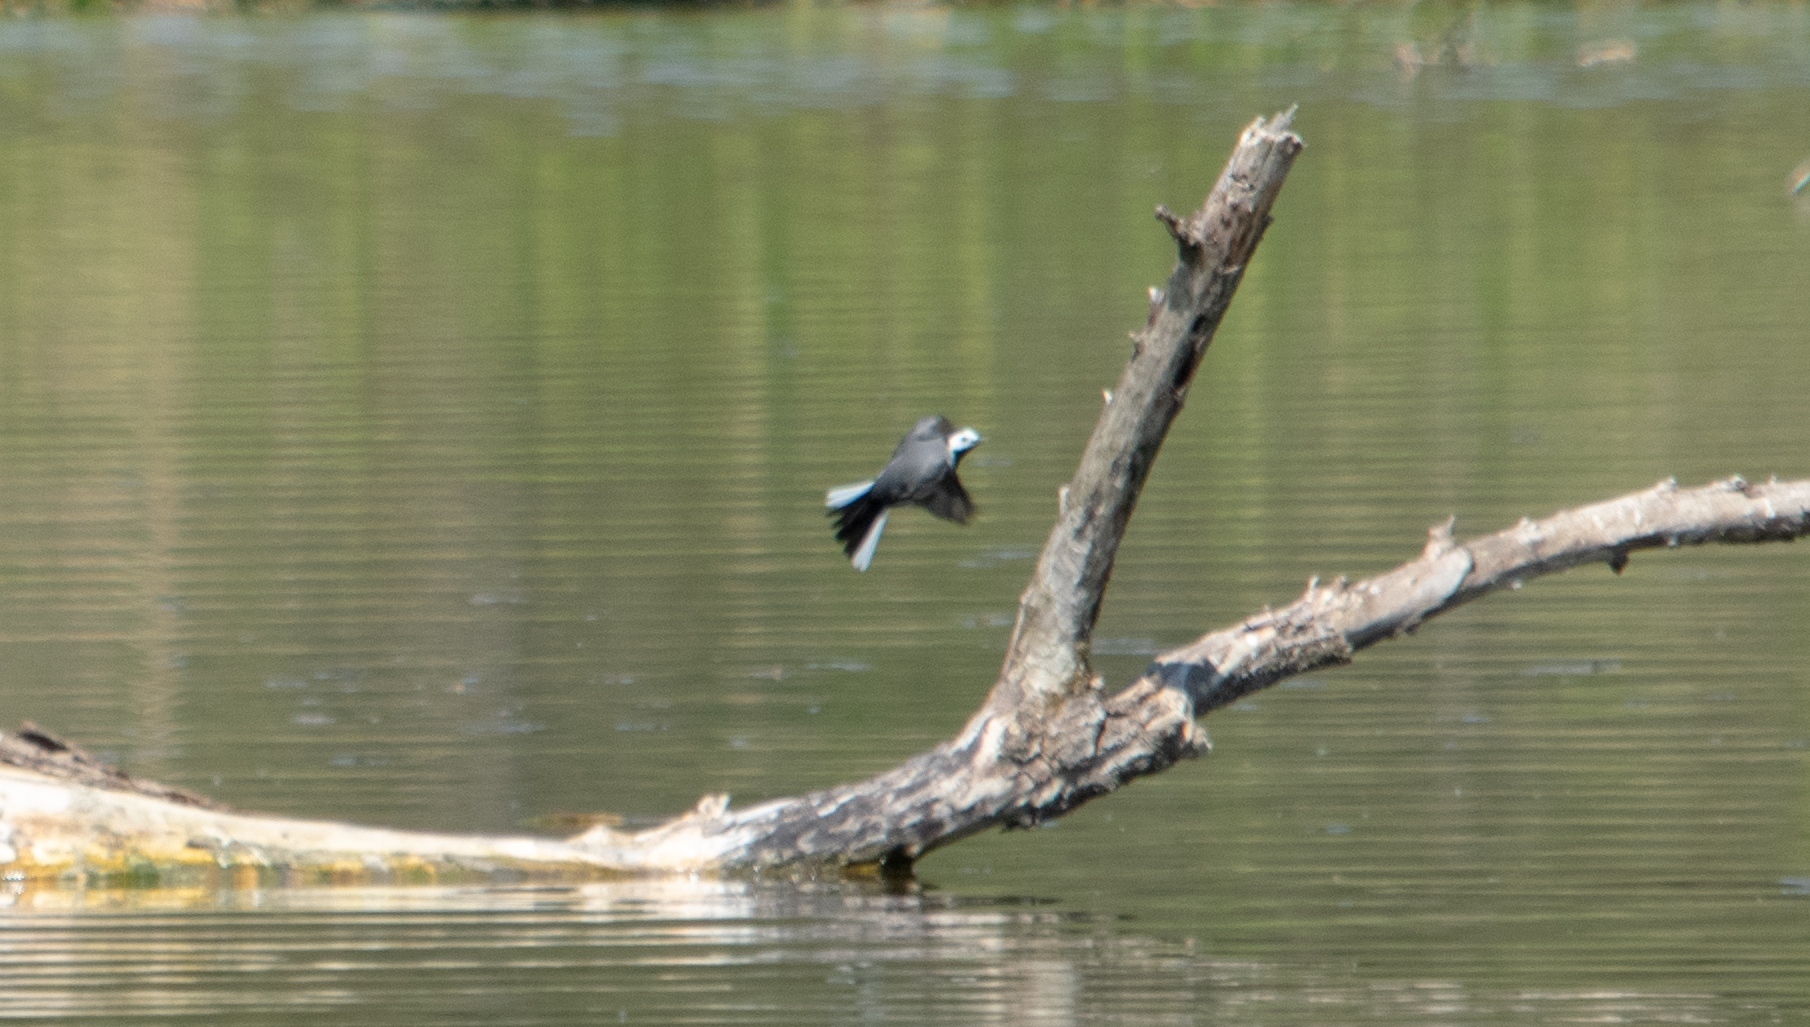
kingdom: Animalia
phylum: Chordata
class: Aves
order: Passeriformes
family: Motacillidae
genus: Motacilla
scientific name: Motacilla alba
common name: White wagtail
